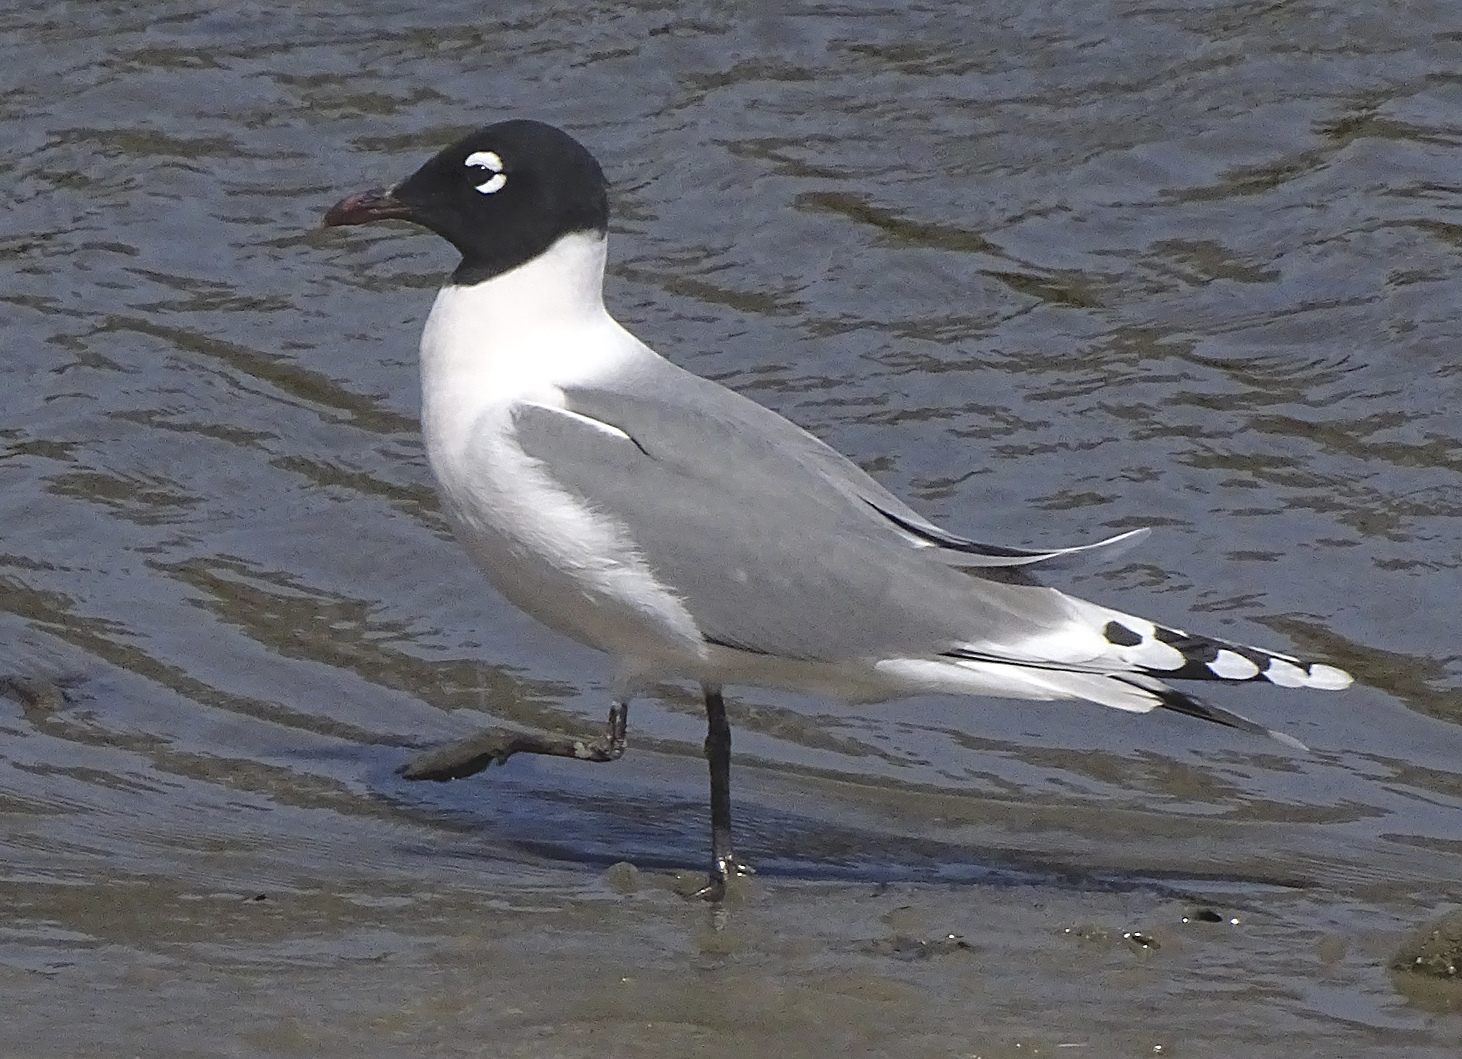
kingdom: Animalia
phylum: Chordata
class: Aves
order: Charadriiformes
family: Laridae
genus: Leucophaeus
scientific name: Leucophaeus pipixcan
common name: Franklin's gull
